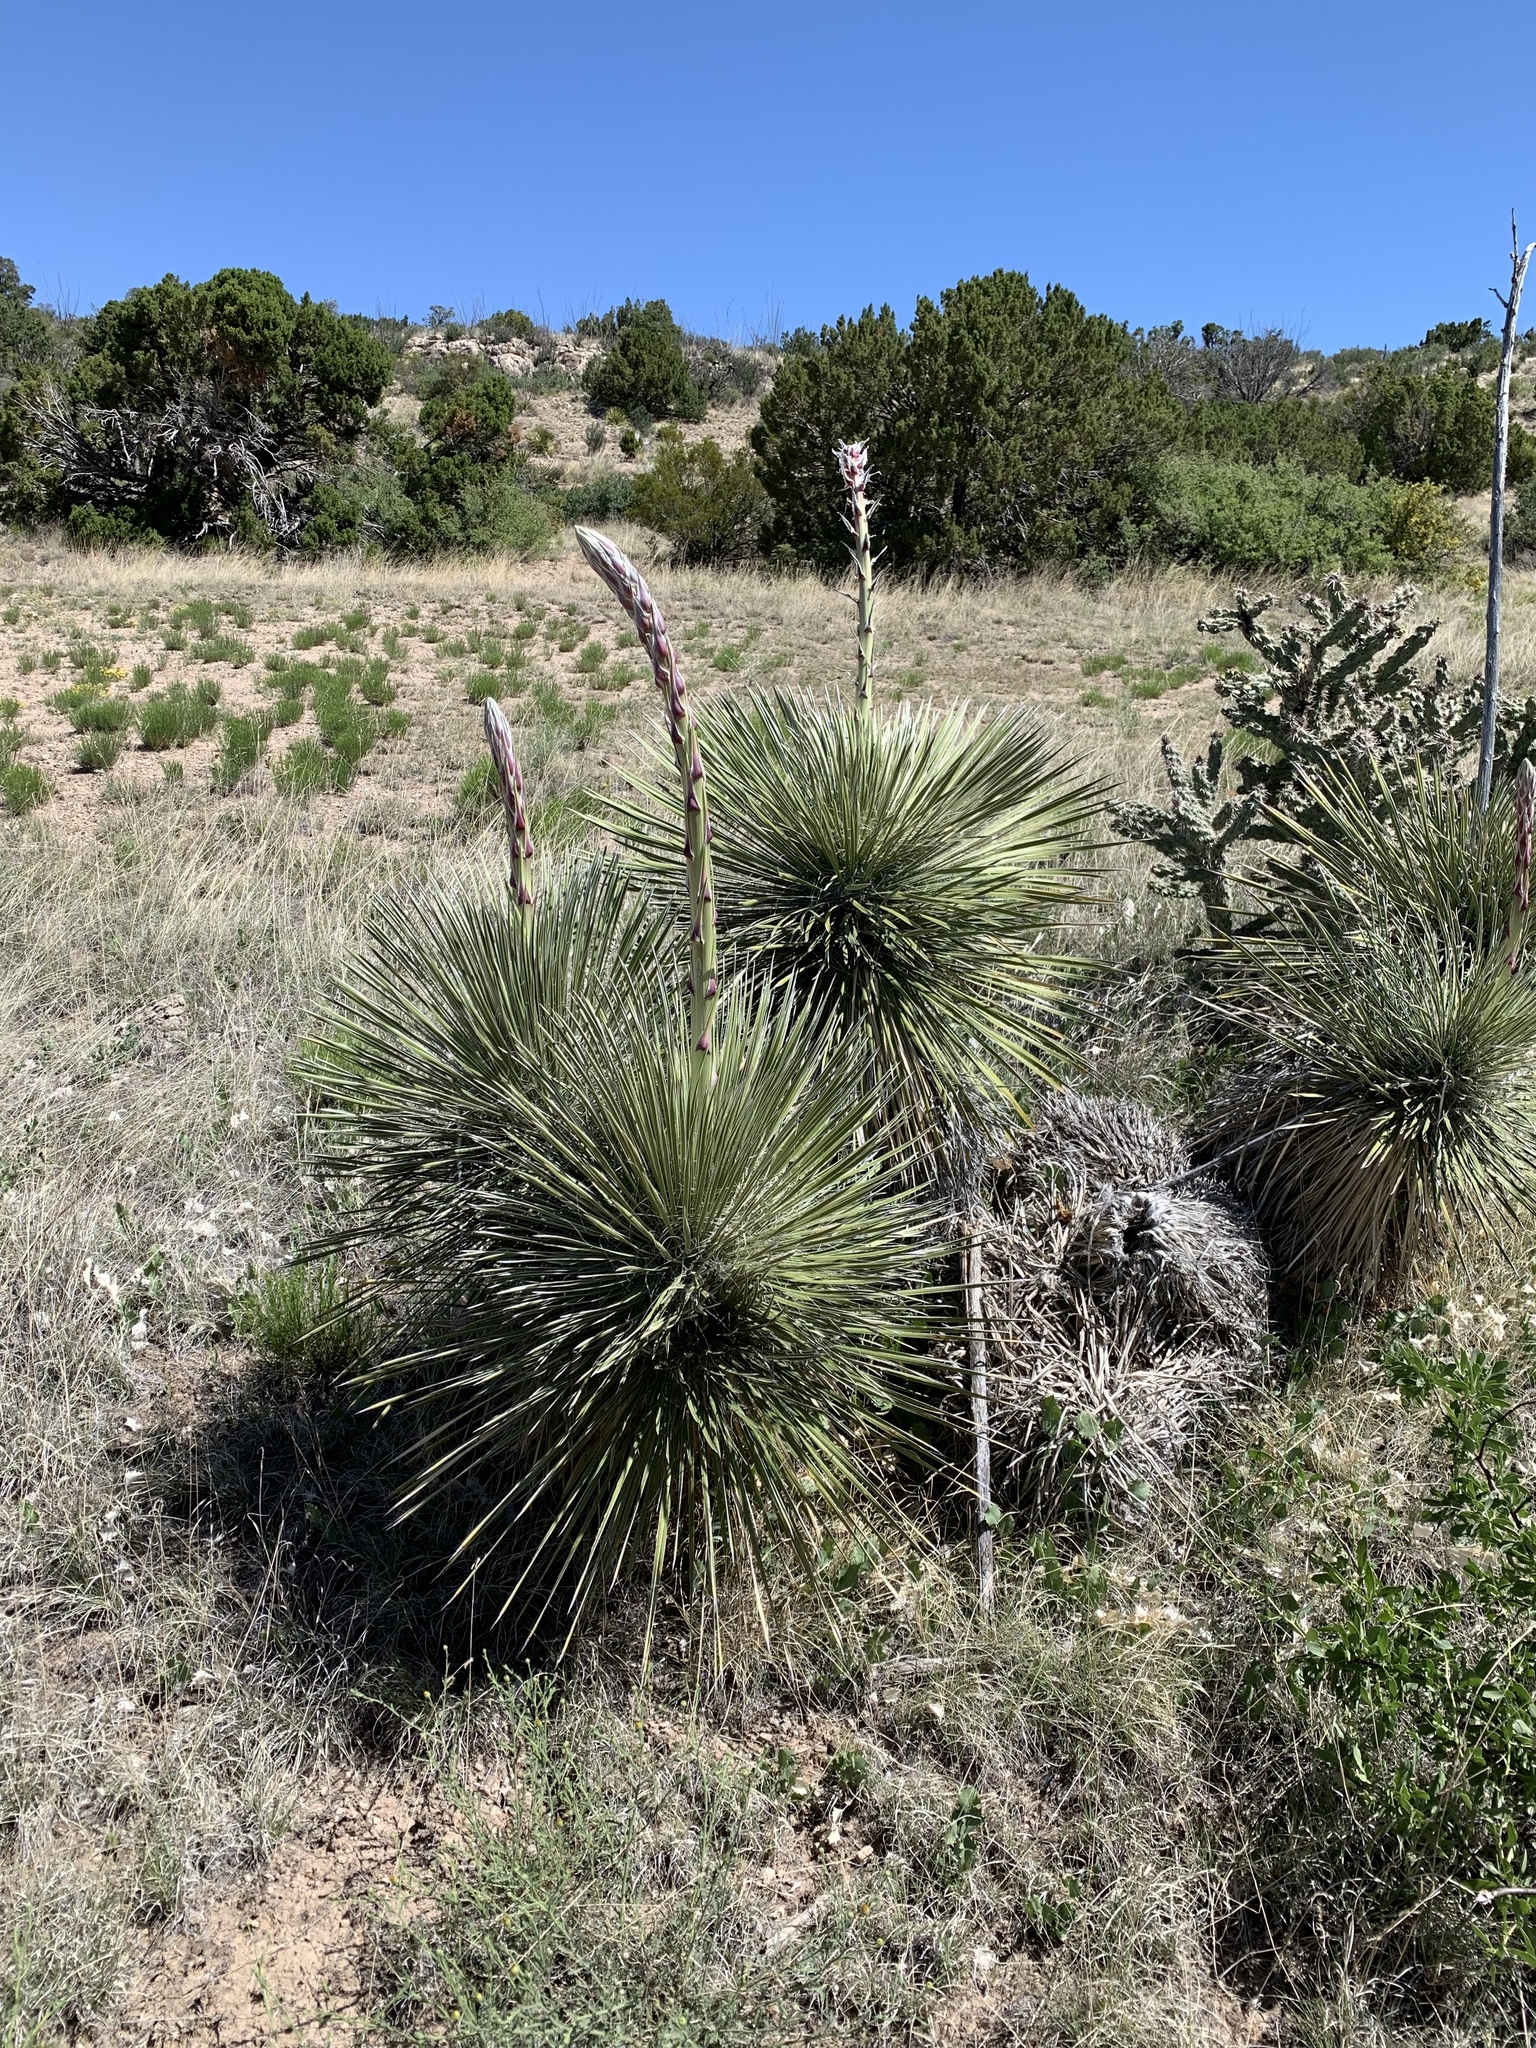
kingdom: Plantae
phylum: Tracheophyta
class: Liliopsida
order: Asparagales
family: Asparagaceae
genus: Yucca
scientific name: Yucca elata
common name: Palmella
